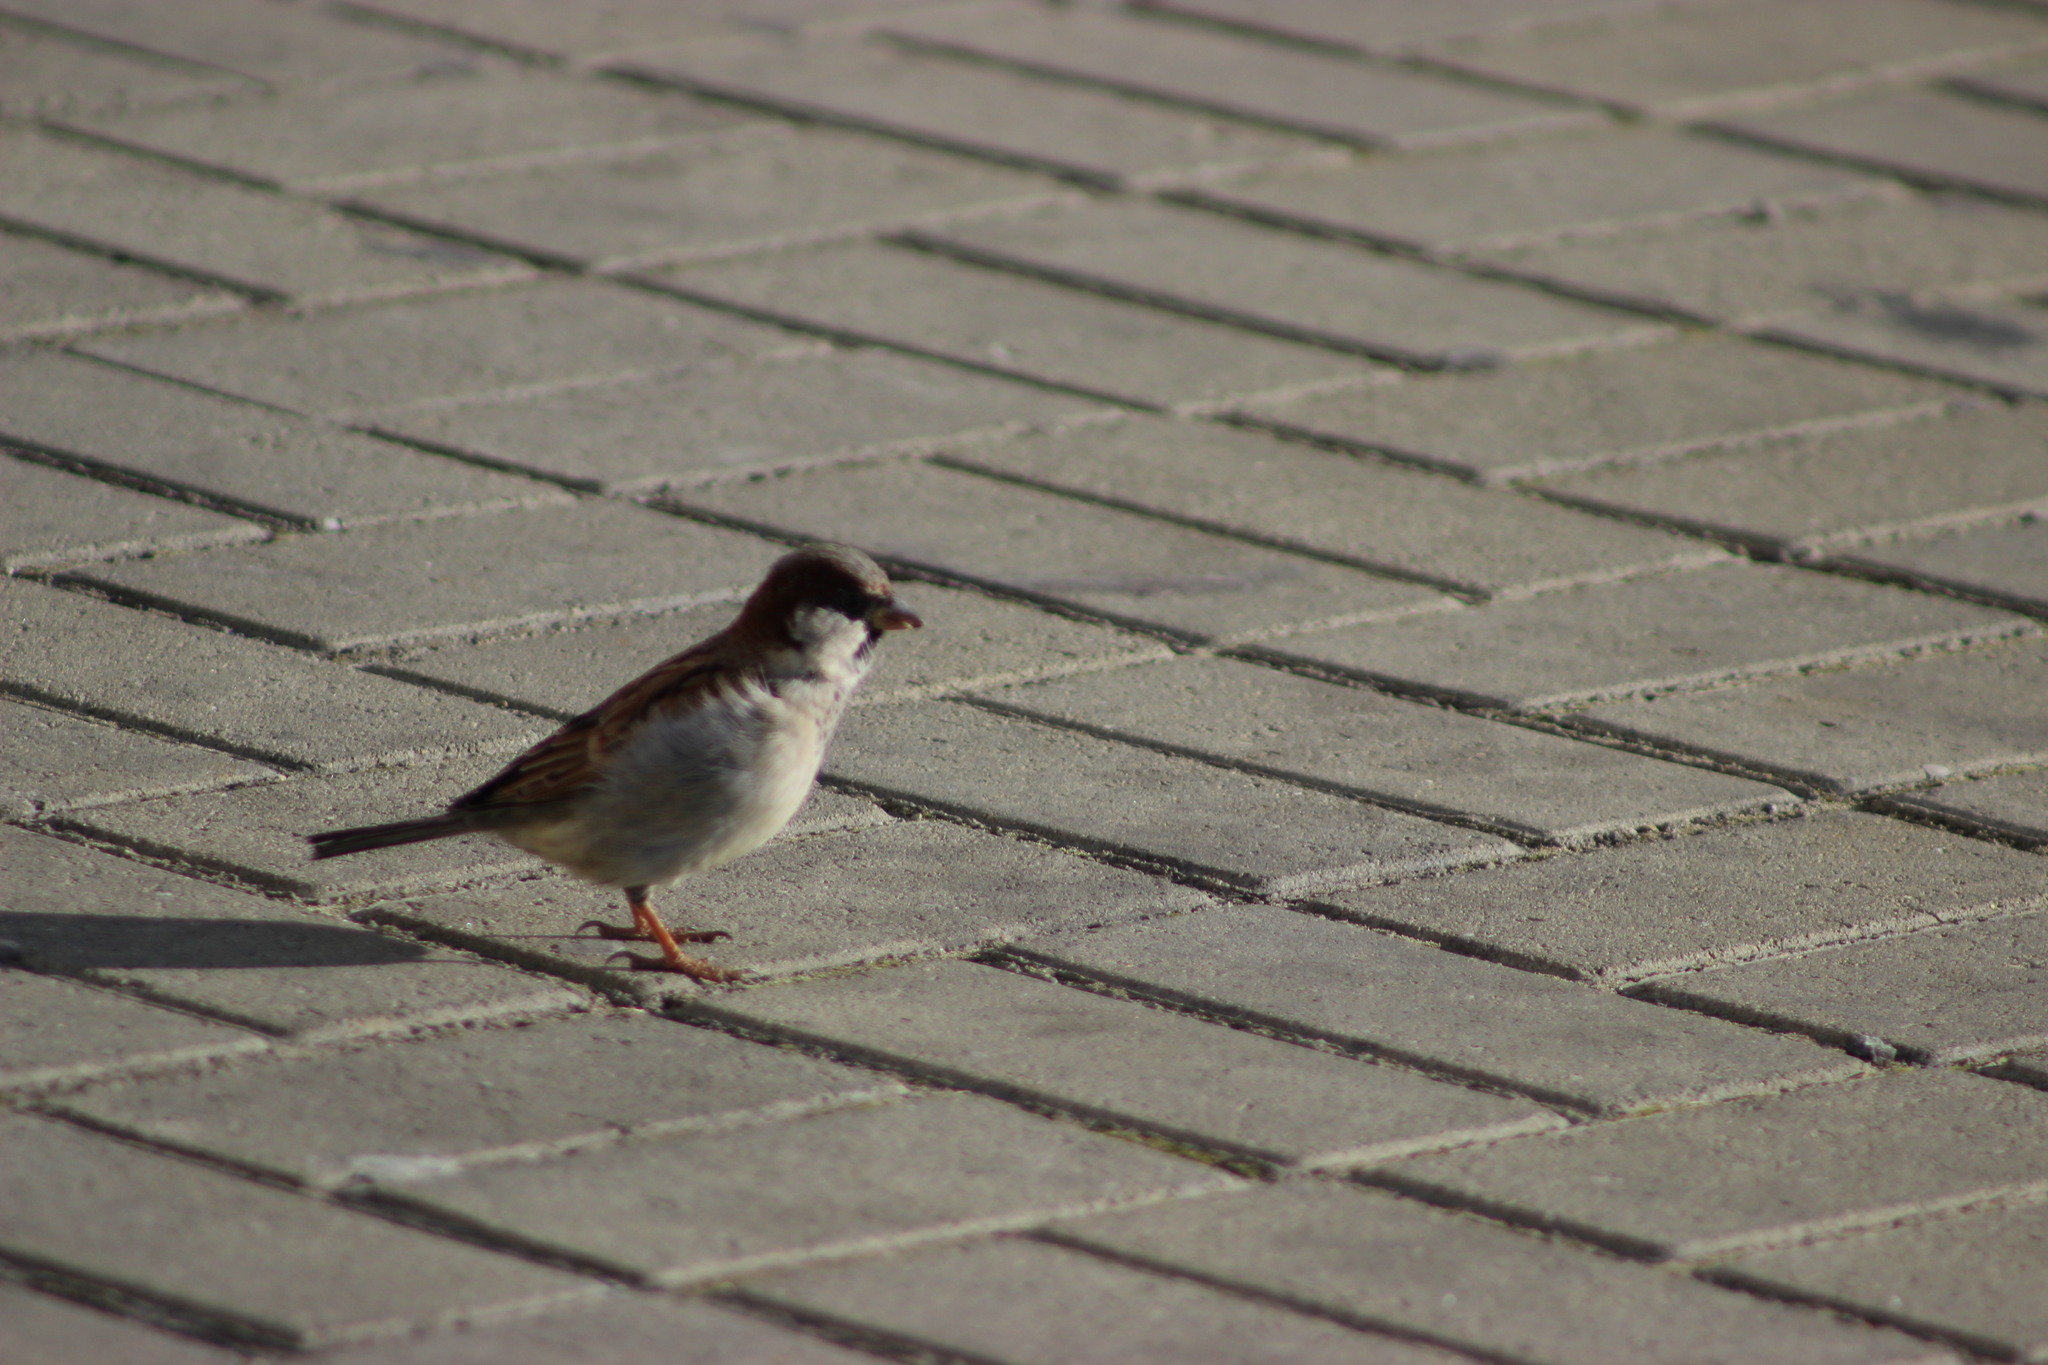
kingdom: Animalia
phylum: Chordata
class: Aves
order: Passeriformes
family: Passeridae
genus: Passer
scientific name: Passer domesticus
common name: House sparrow
